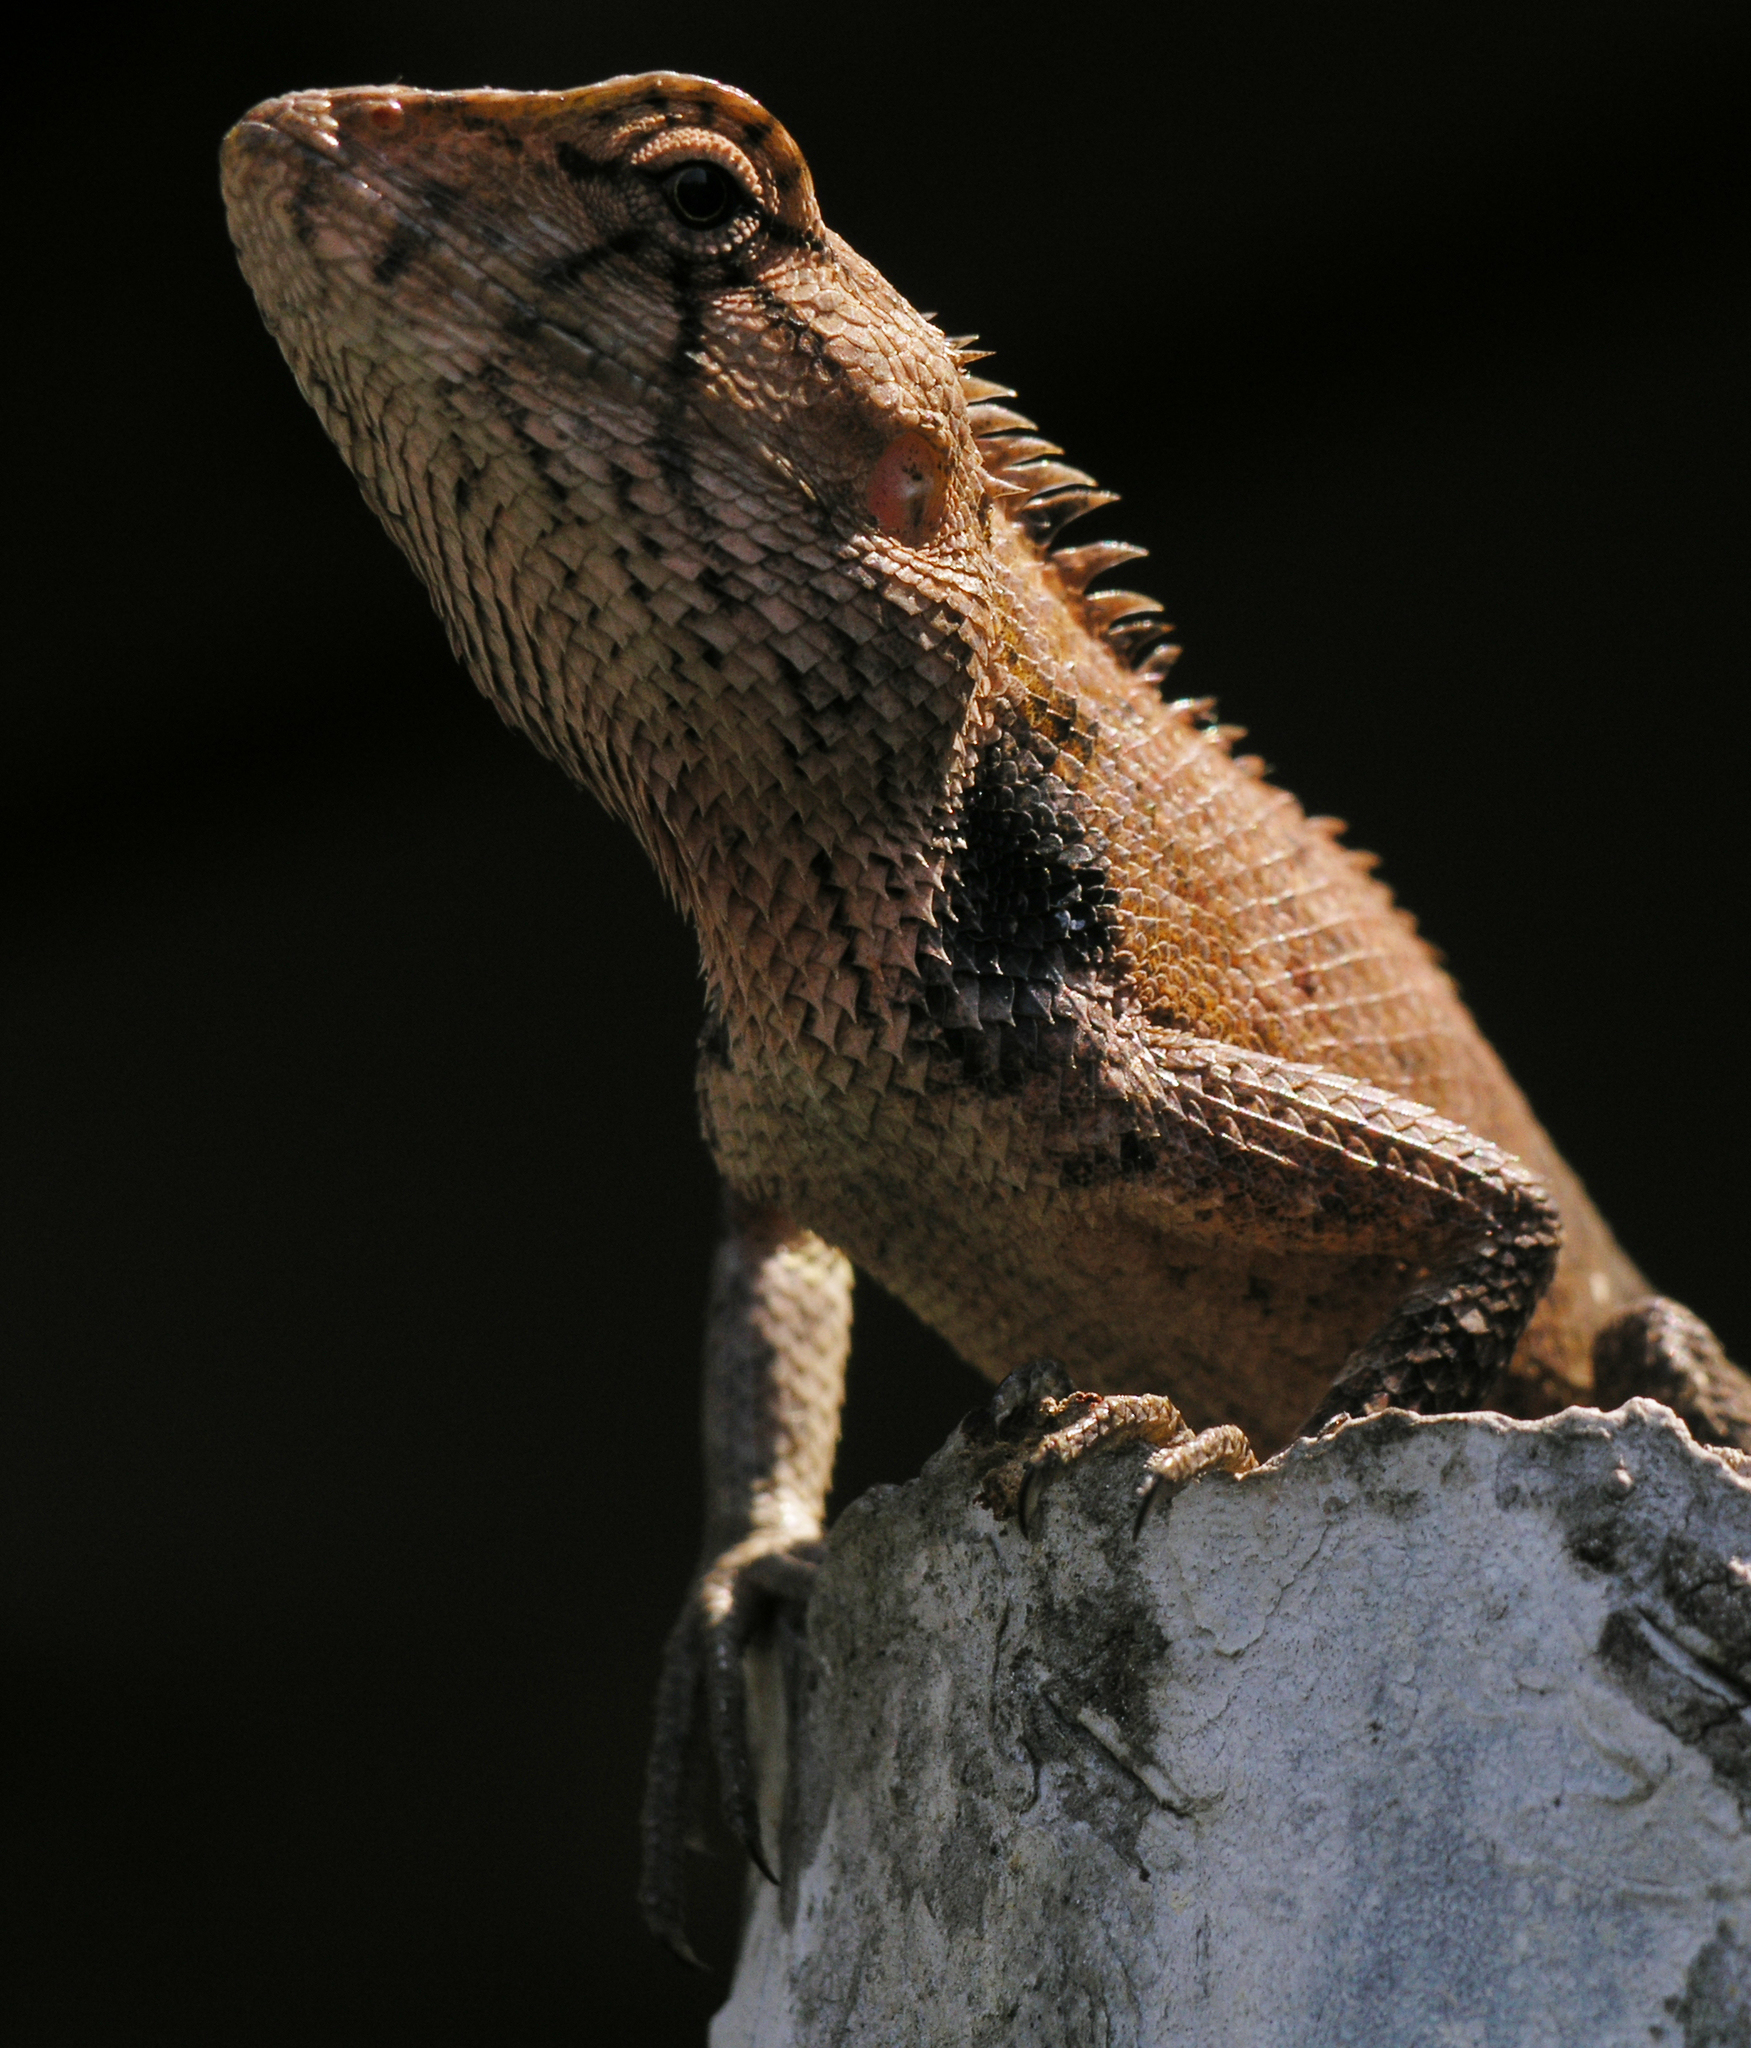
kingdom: Animalia
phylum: Chordata
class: Squamata
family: Agamidae
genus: Calotes
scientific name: Calotes versicolor
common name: Oriental garden lizard
